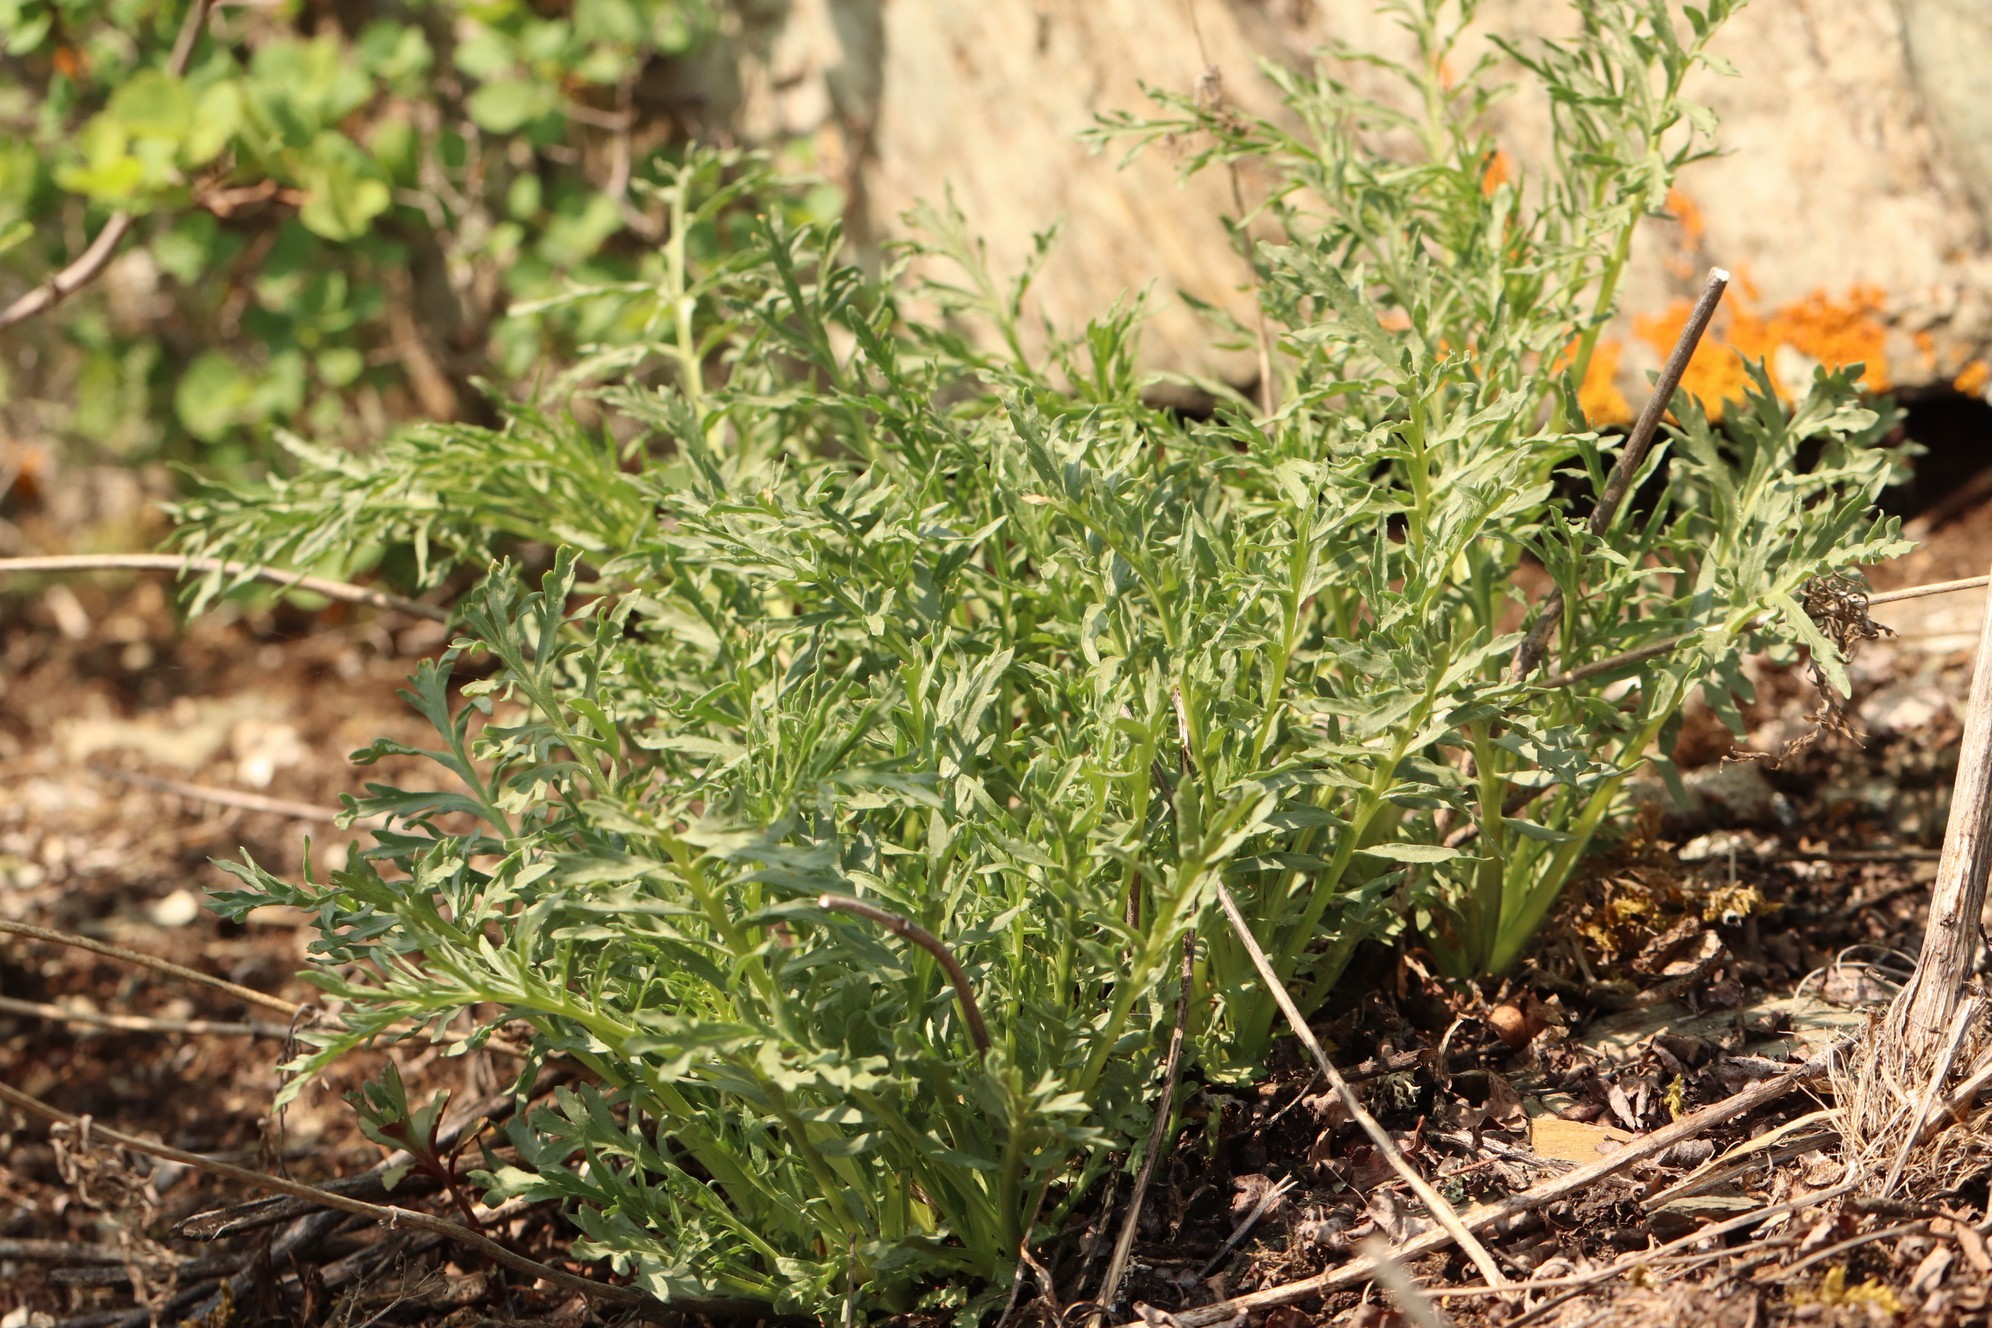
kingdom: Plantae
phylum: Tracheophyta
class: Magnoliopsida
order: Dipsacales
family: Caprifoliaceae
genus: Patrinia
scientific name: Patrinia intermedia
